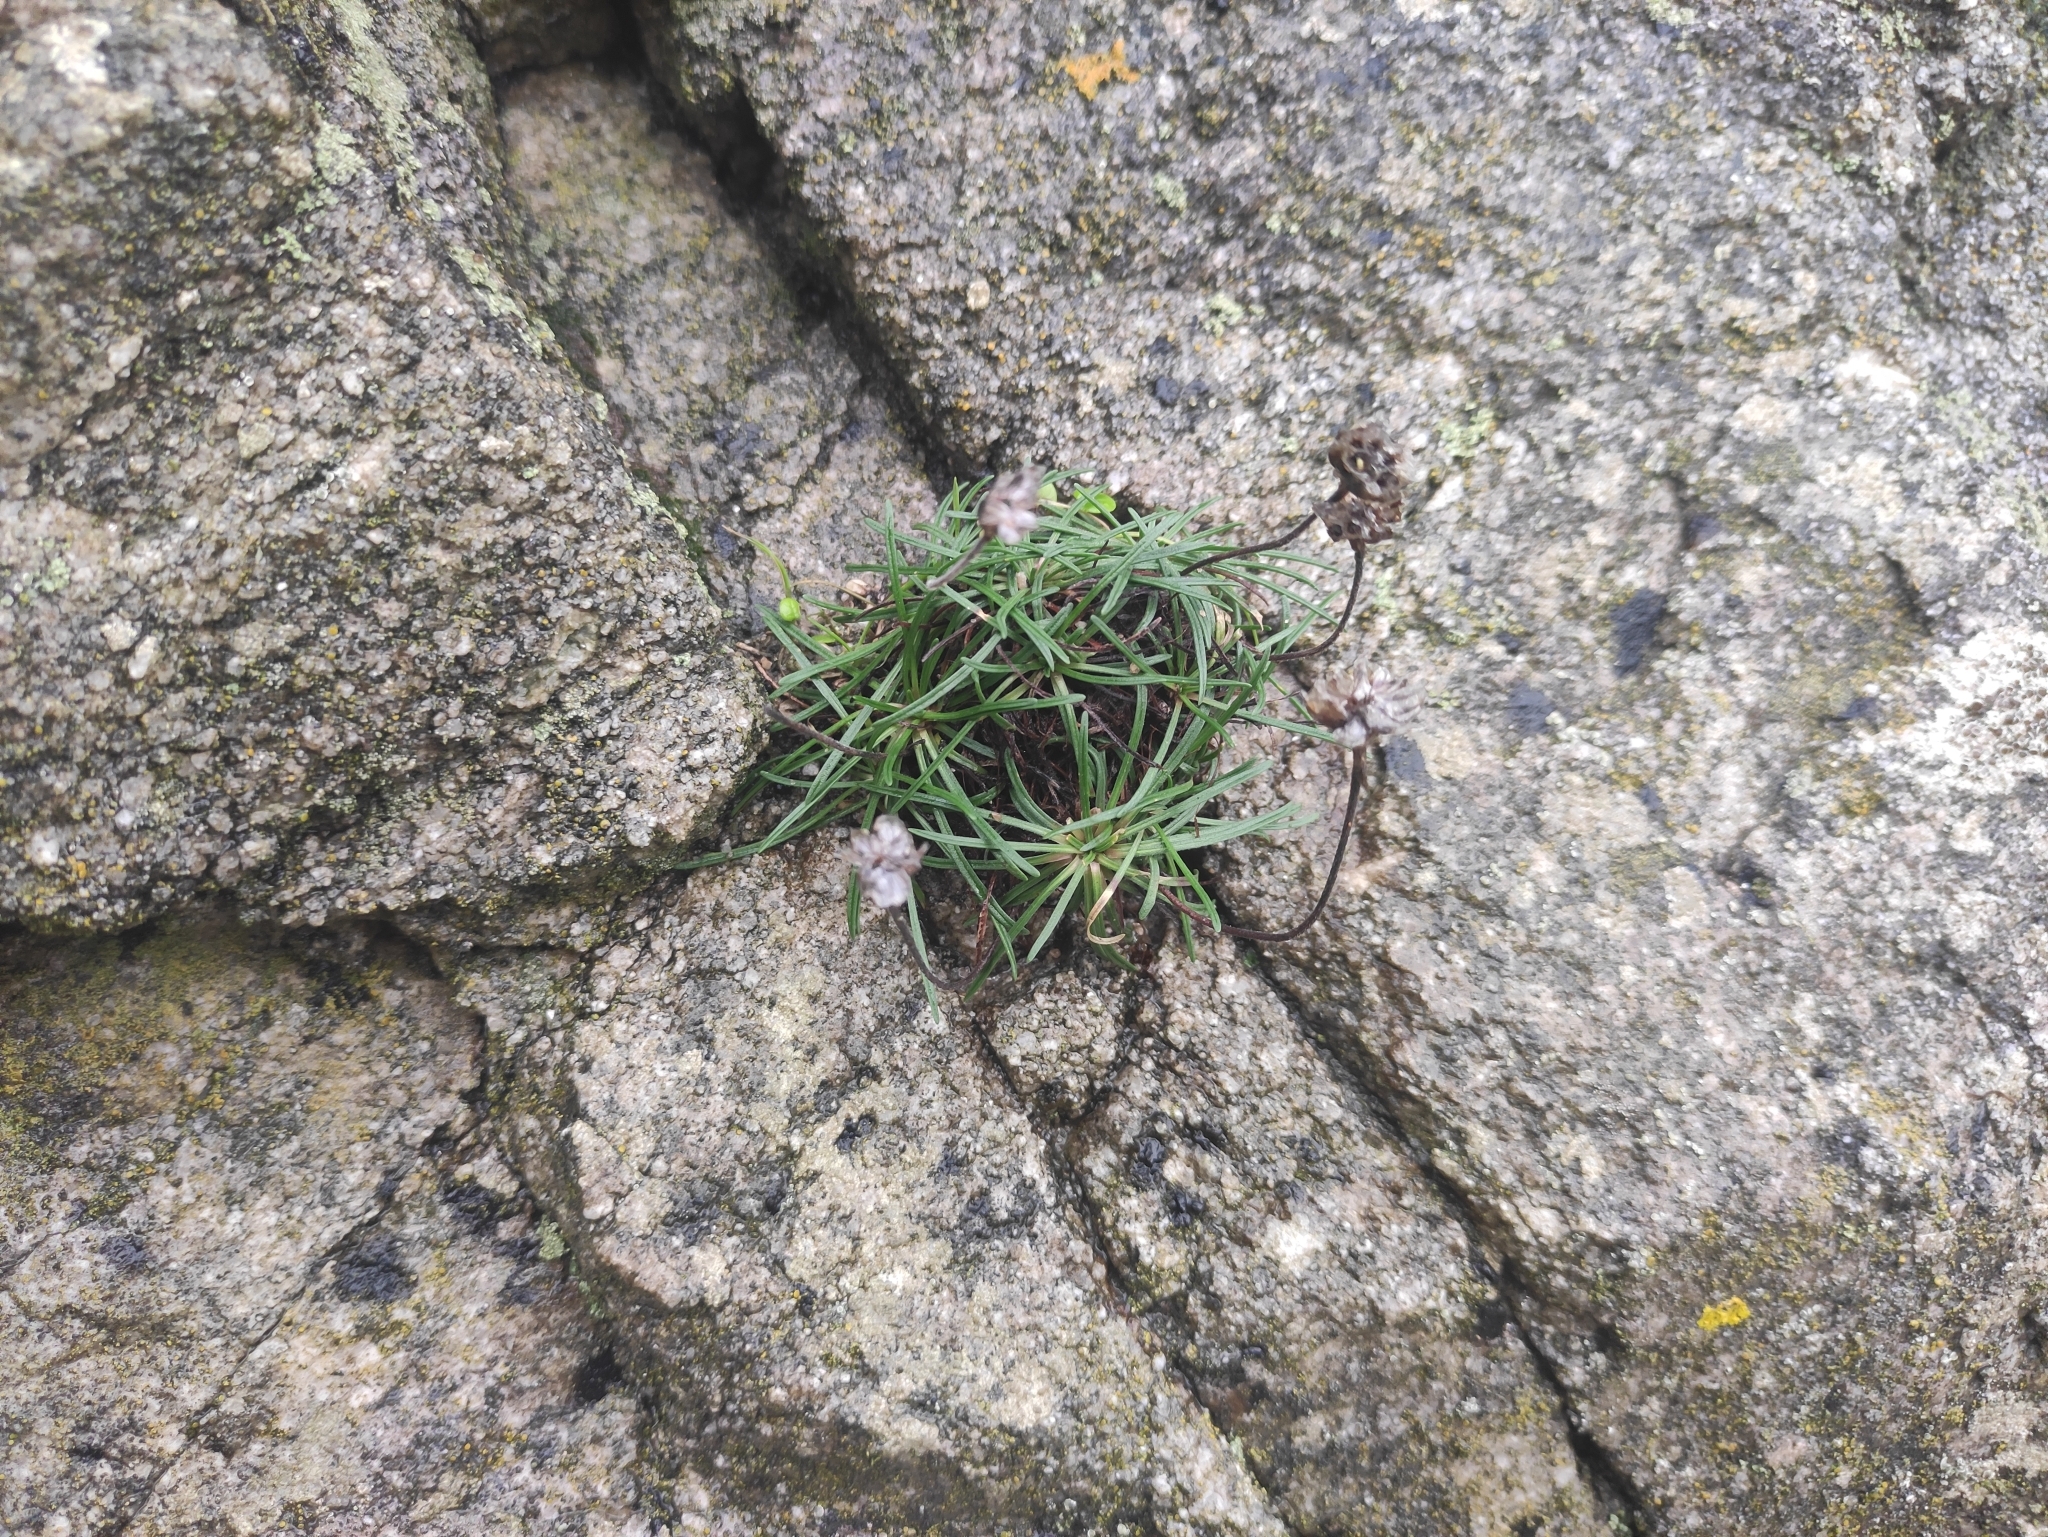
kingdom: Plantae
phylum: Tracheophyta
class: Magnoliopsida
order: Caryophyllales
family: Plumbaginaceae
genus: Armeria
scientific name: Armeria maritima
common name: Thrift
